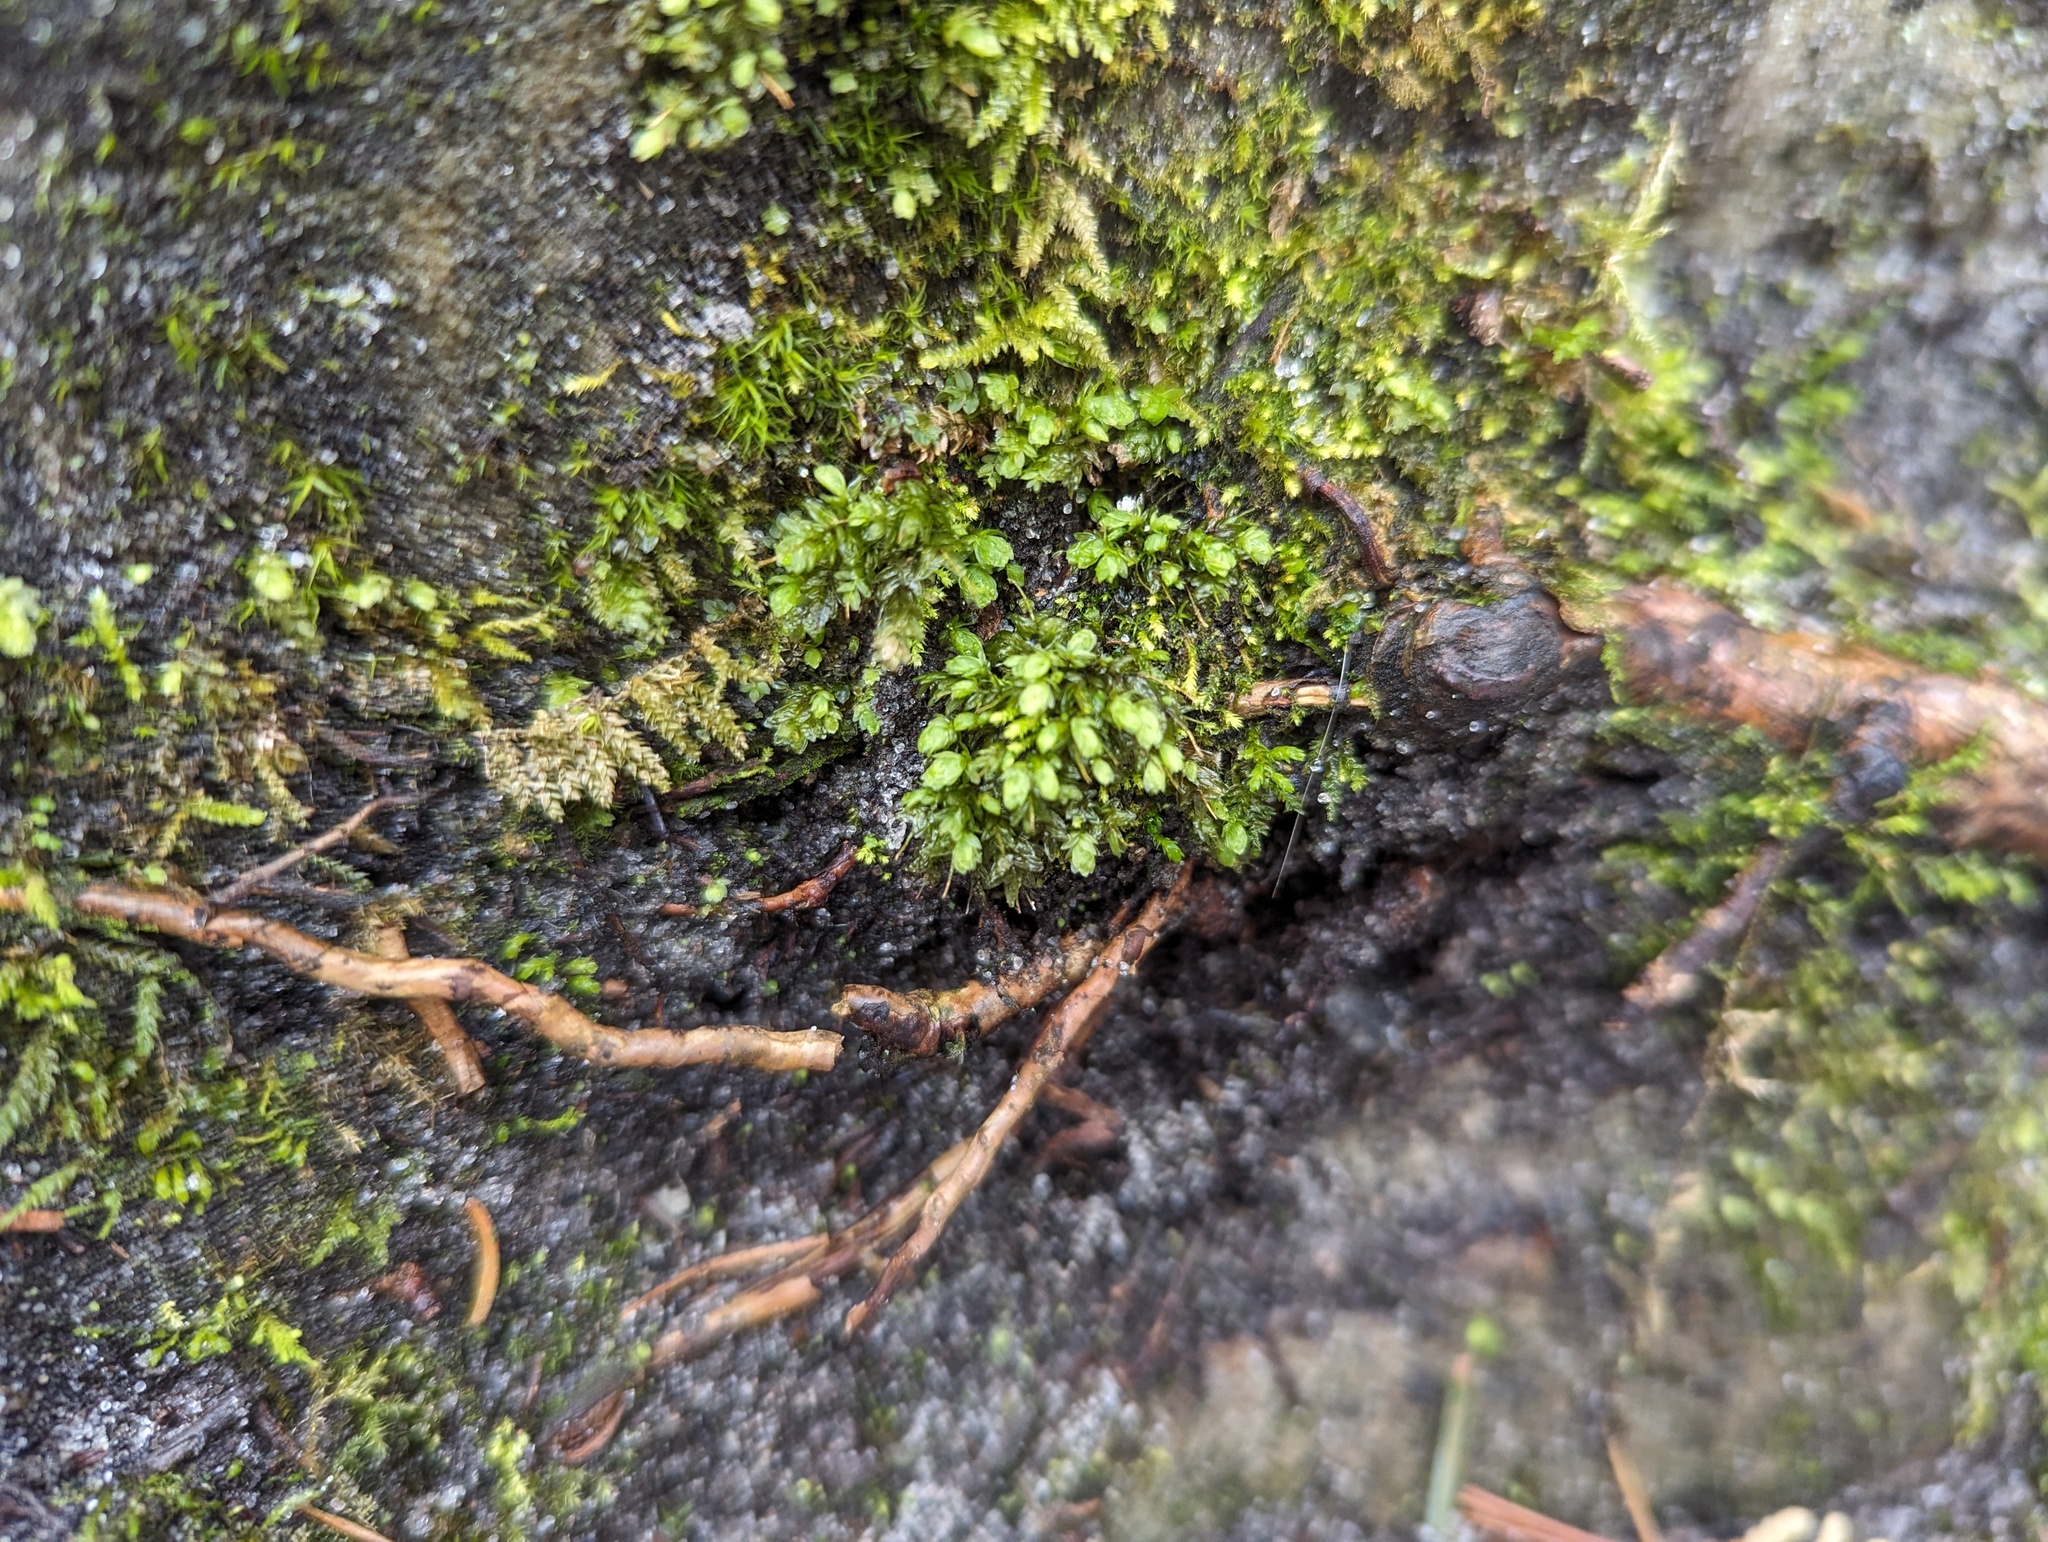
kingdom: Plantae
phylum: Bryophyta
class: Bryopsida
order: Aulacomniales
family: Aulacomniaceae
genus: Aulacomnium
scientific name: Aulacomnium heterostichum
